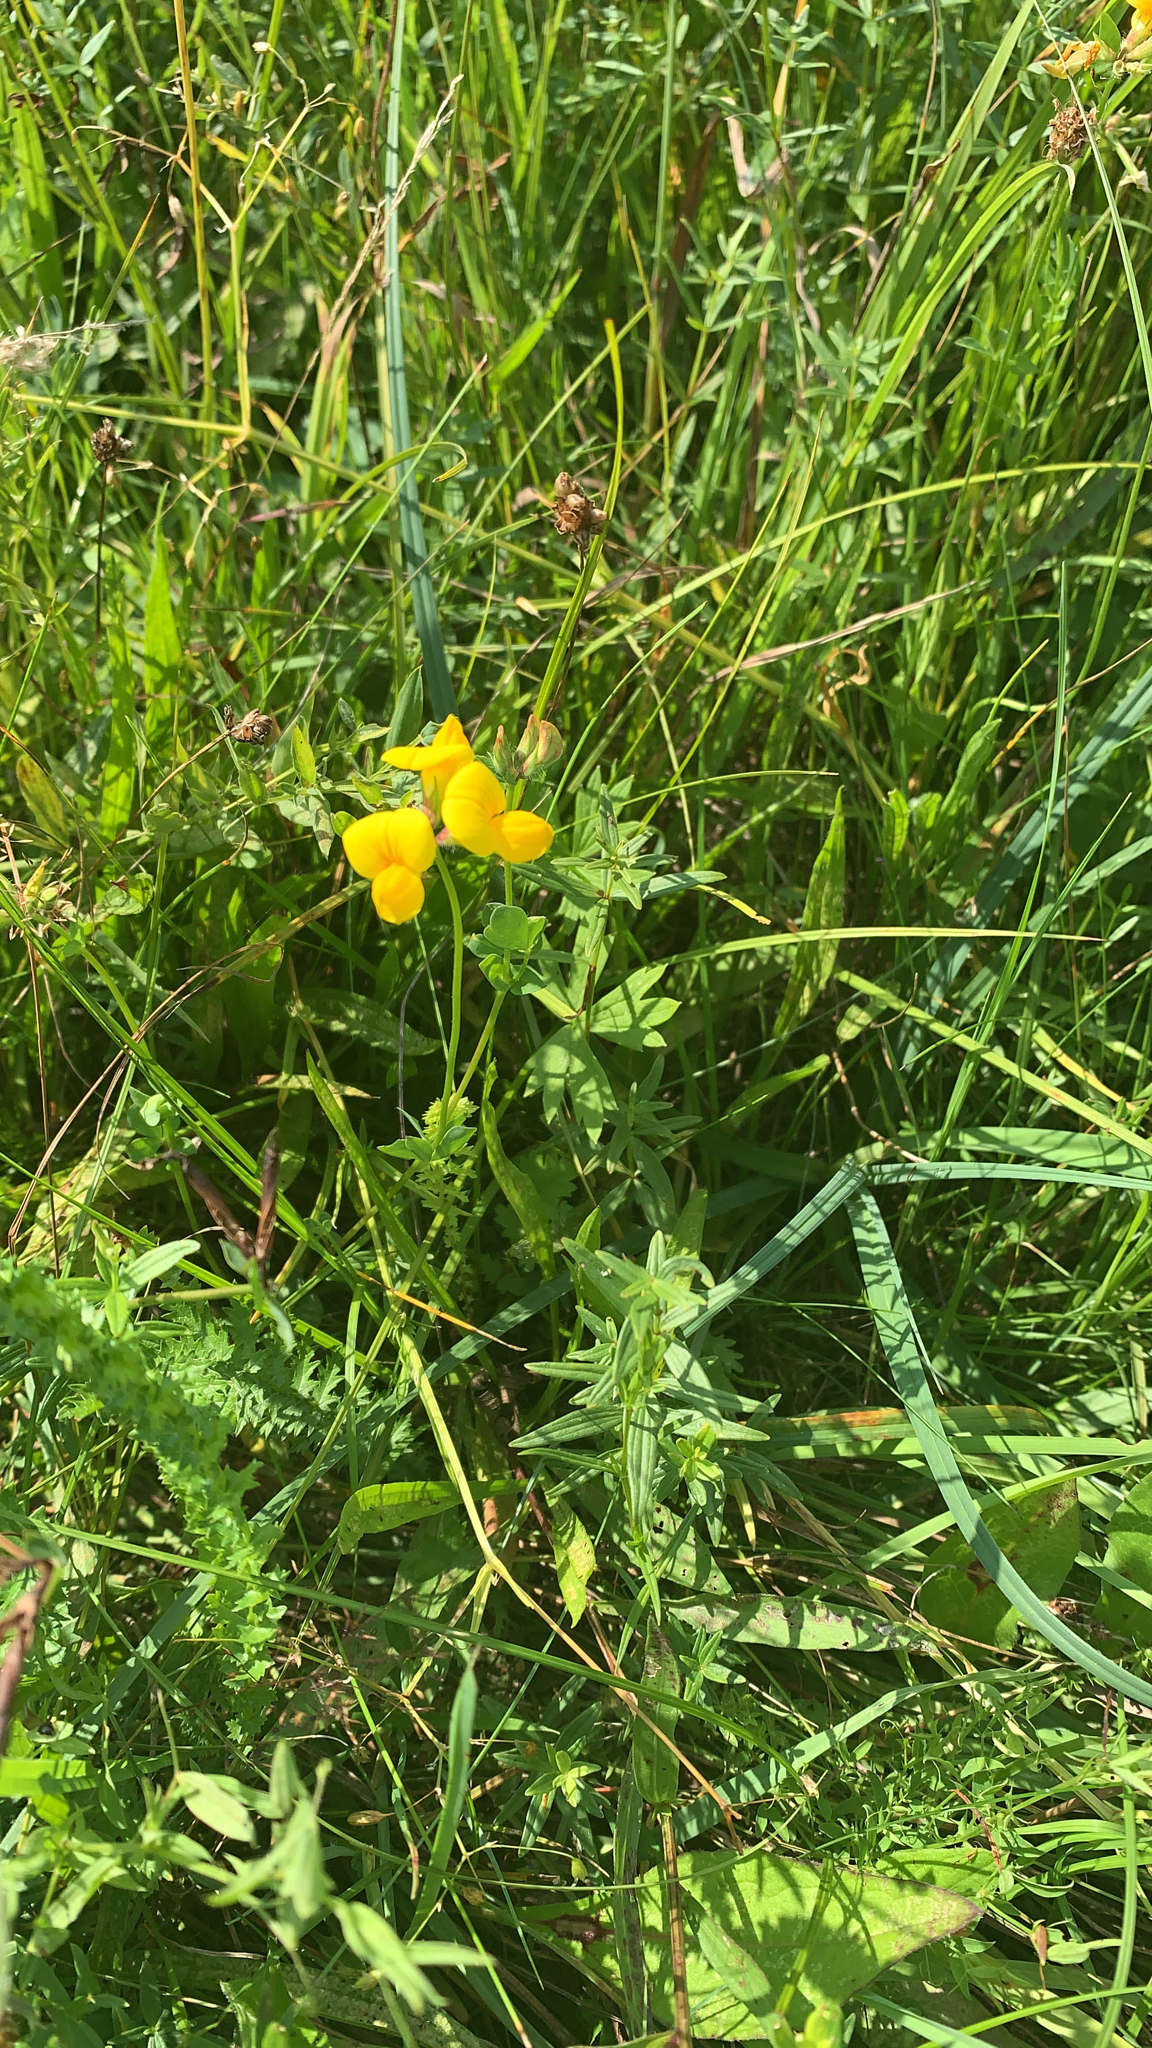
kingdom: Plantae
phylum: Tracheophyta
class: Magnoliopsida
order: Fabales
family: Fabaceae
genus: Lotus
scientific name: Lotus corniculatus
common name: Common bird's-foot-trefoil
